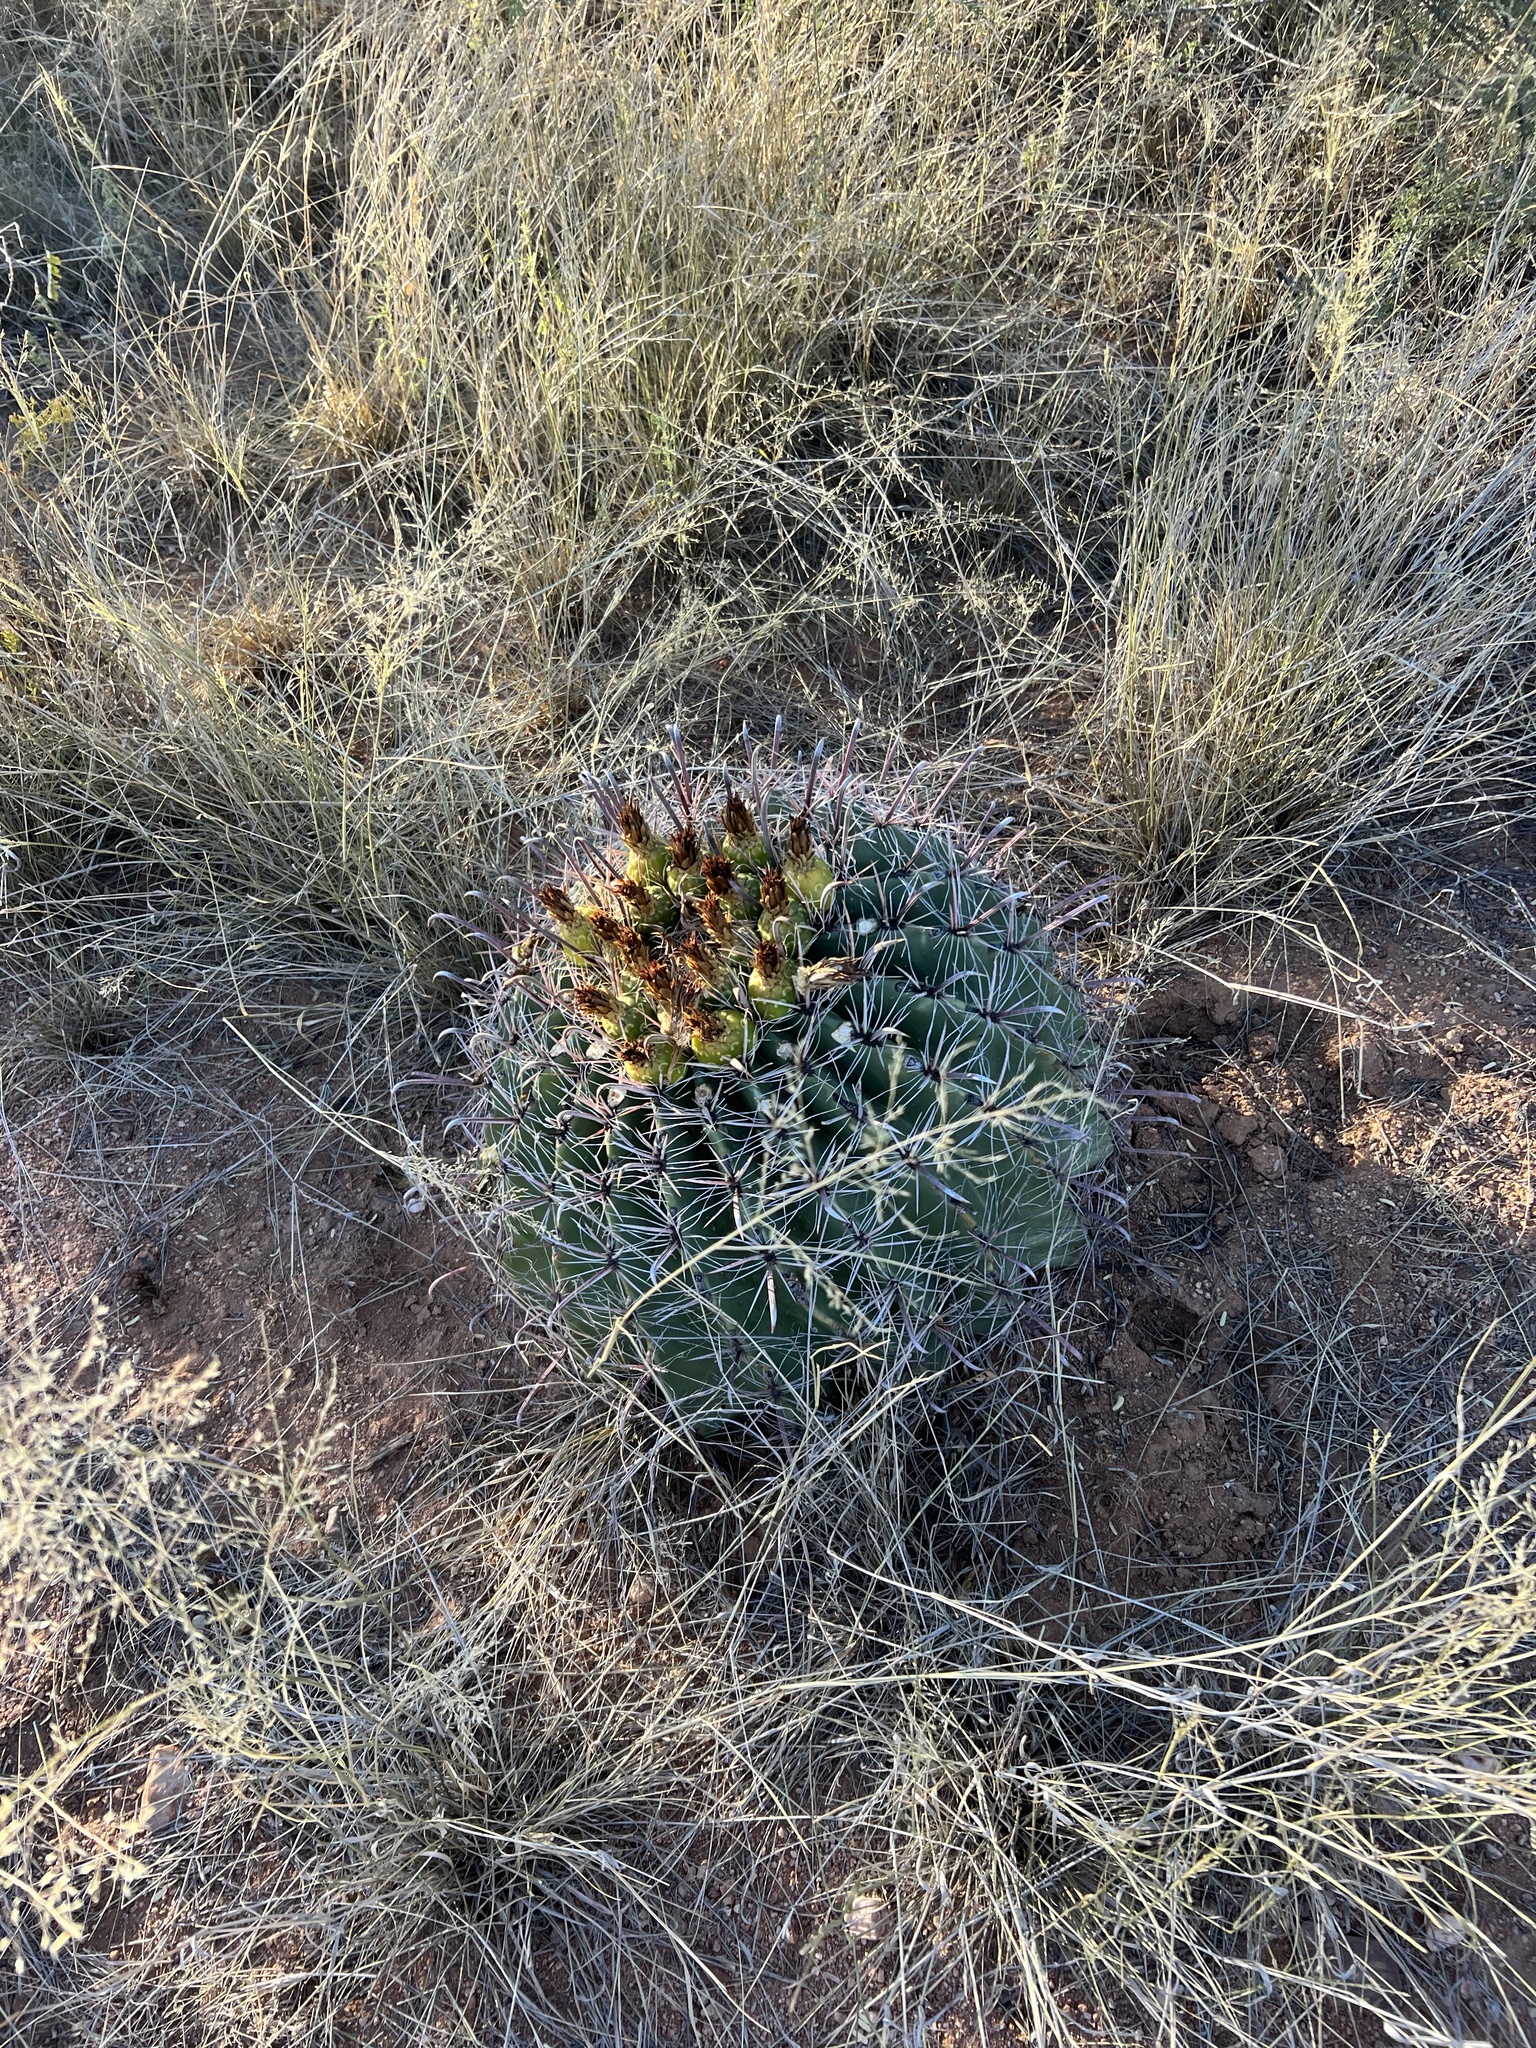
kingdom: Plantae
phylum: Tracheophyta
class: Magnoliopsida
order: Caryophyllales
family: Cactaceae
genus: Ferocactus
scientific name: Ferocactus wislizeni
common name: Candy barrel cactus
